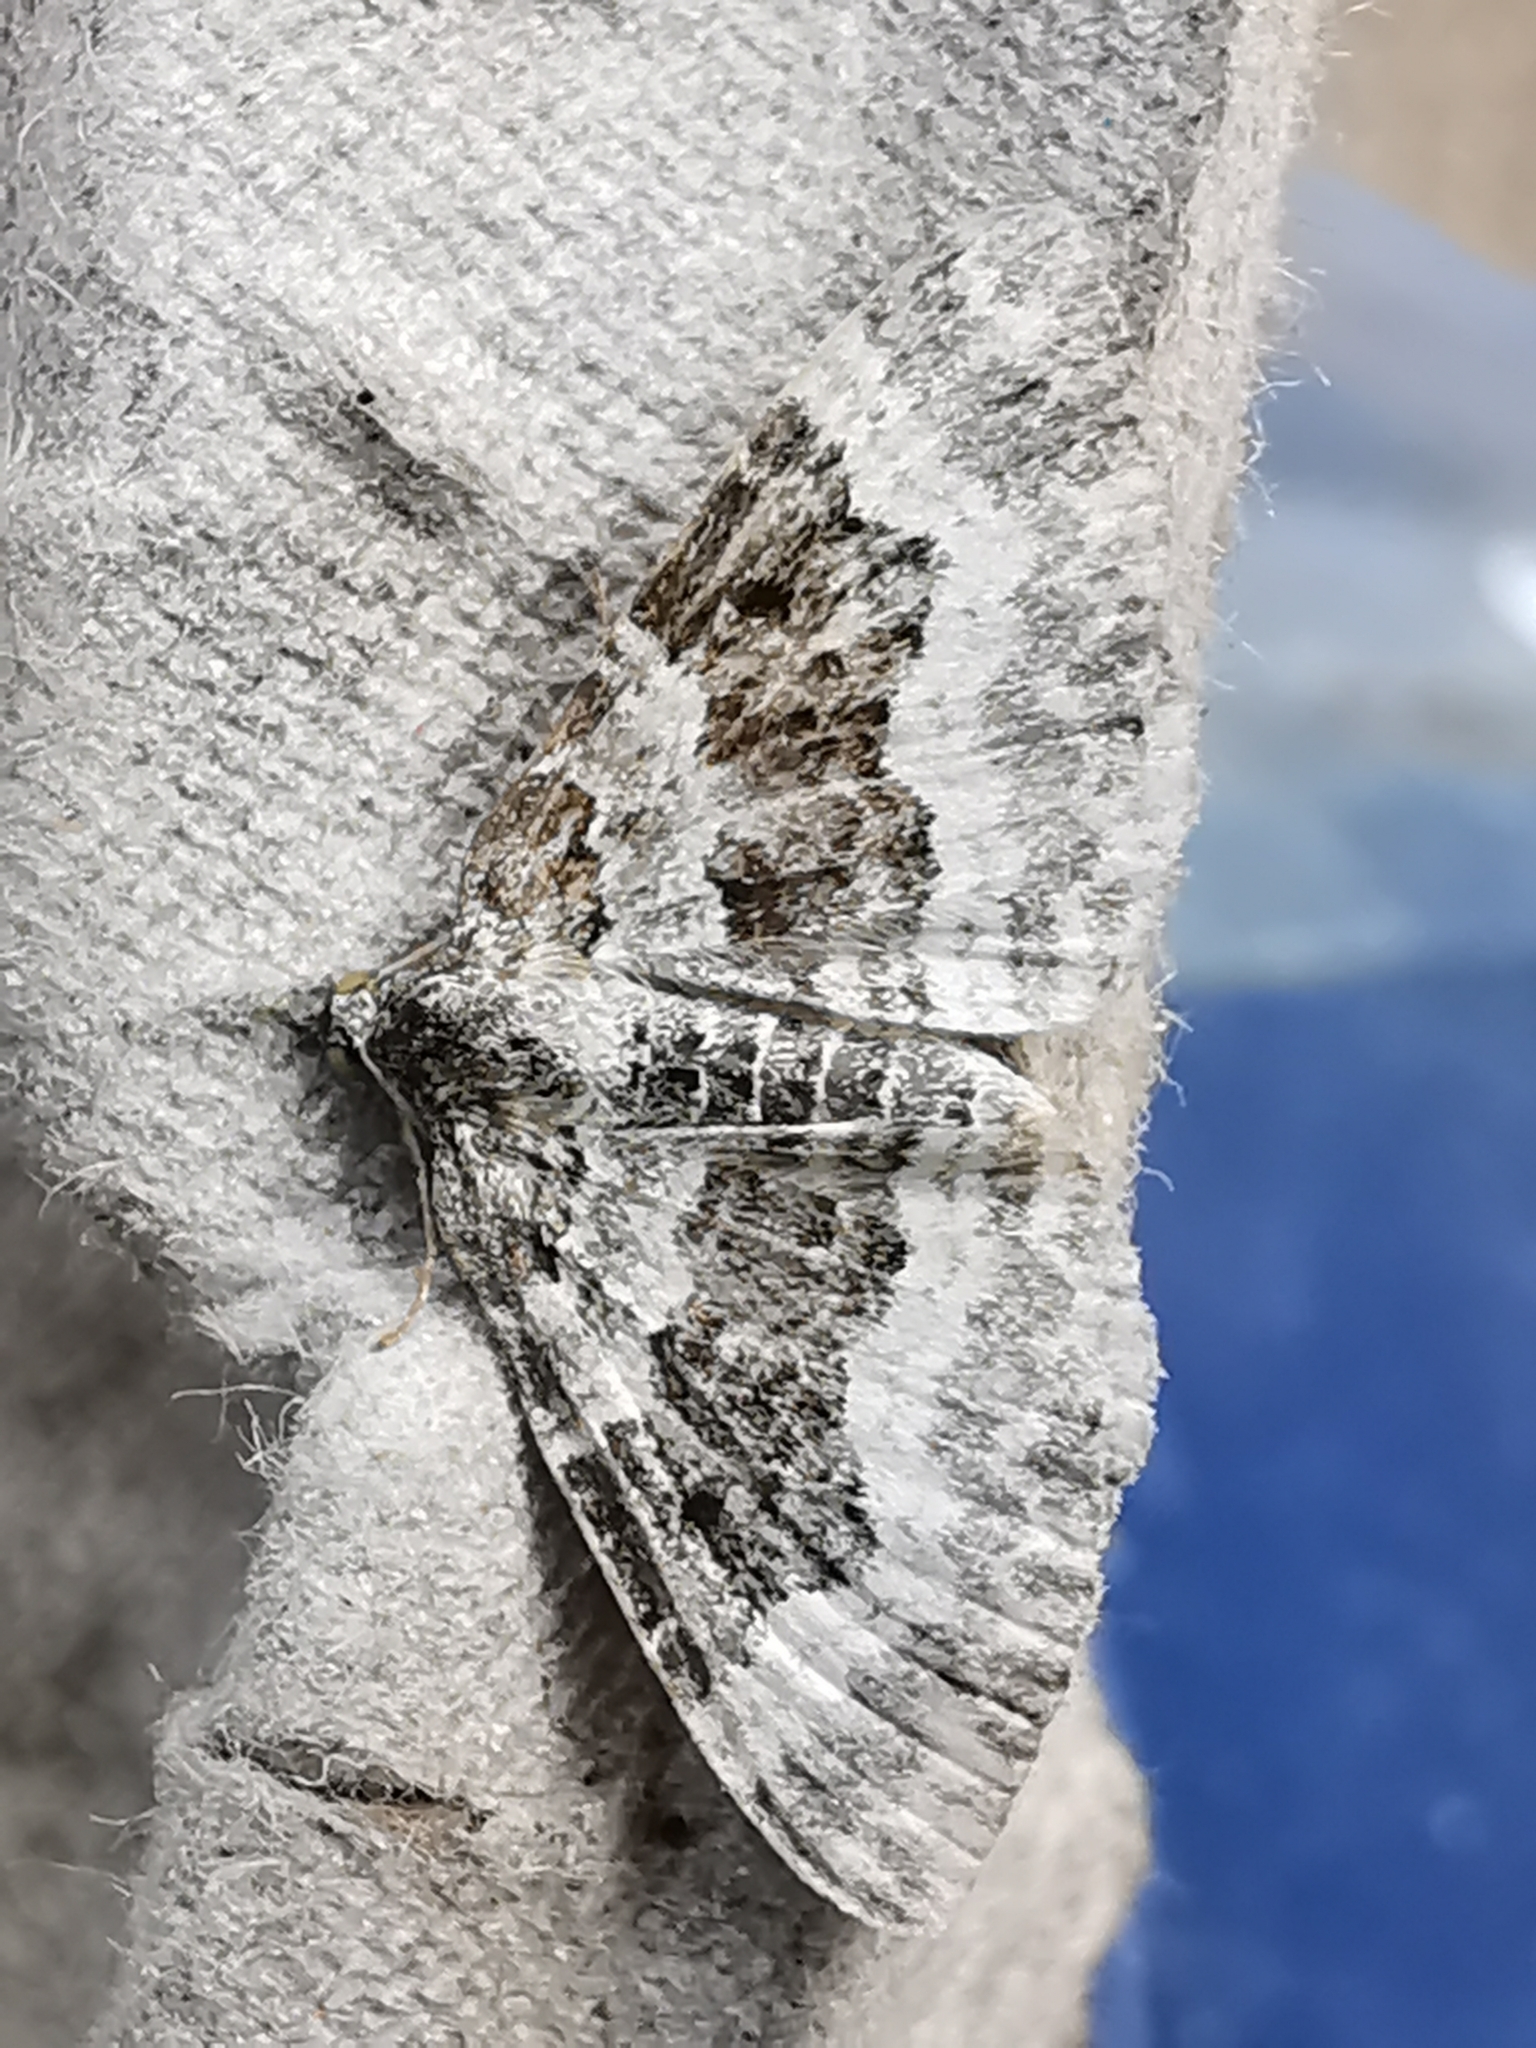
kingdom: Animalia
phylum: Arthropoda
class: Insecta
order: Lepidoptera
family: Geometridae
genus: Epirrhoe
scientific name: Epirrhoe alternata
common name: Common carpet
